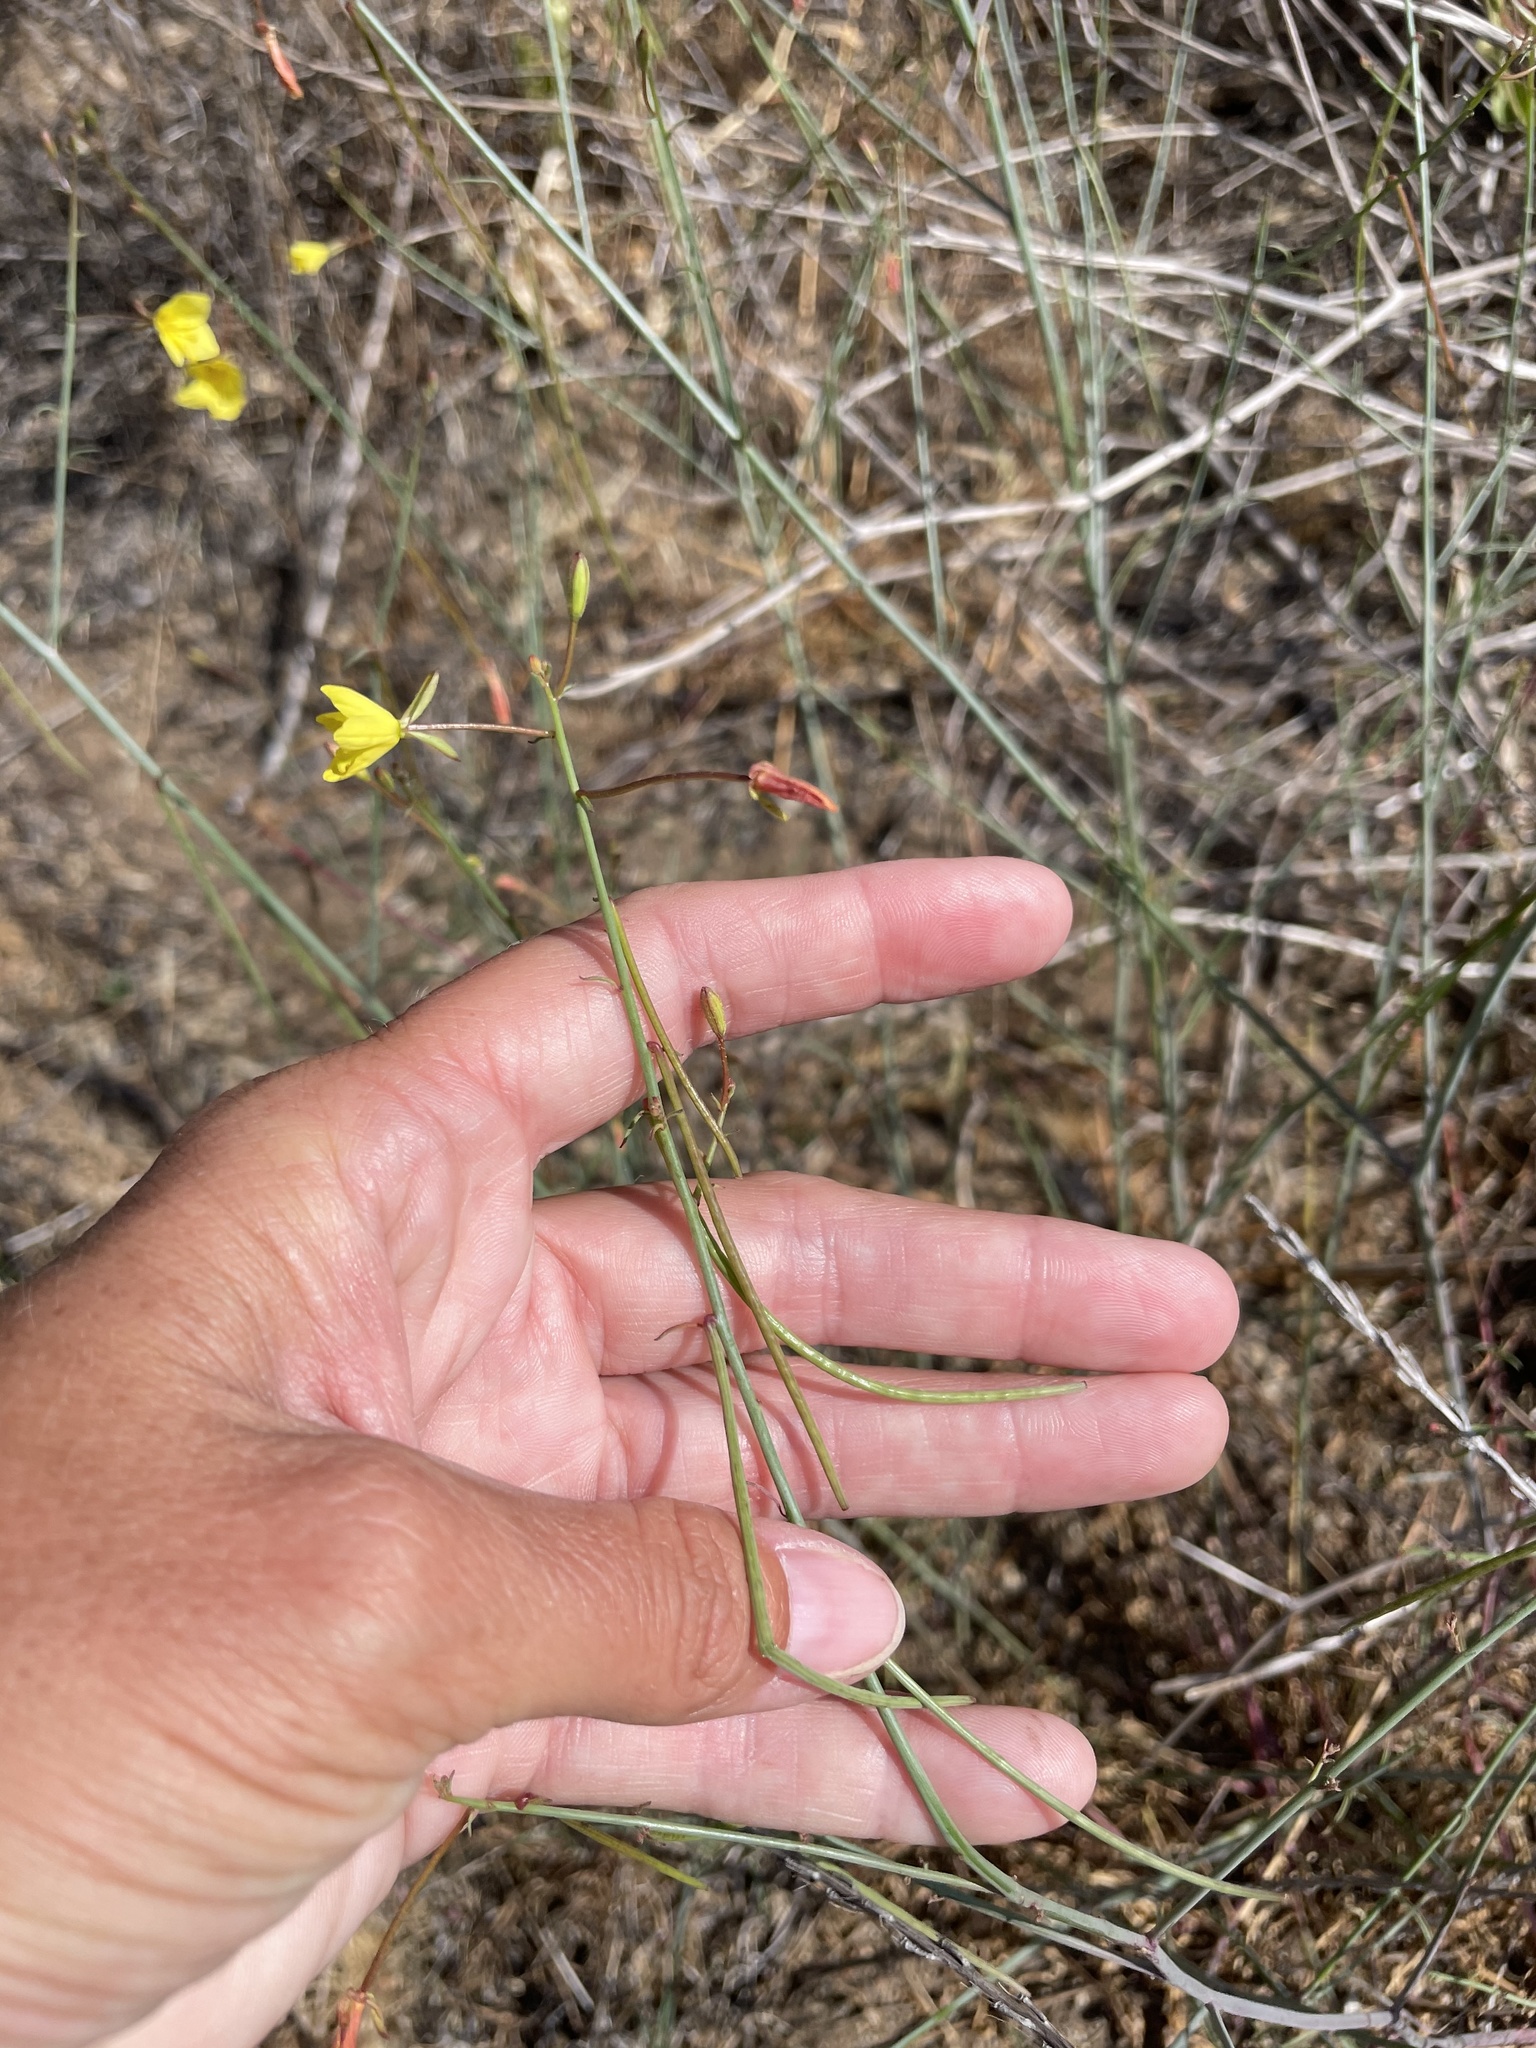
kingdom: Plantae
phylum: Tracheophyta
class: Magnoliopsida
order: Myrtales
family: Onagraceae
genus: Eulobus
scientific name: Eulobus californicus
